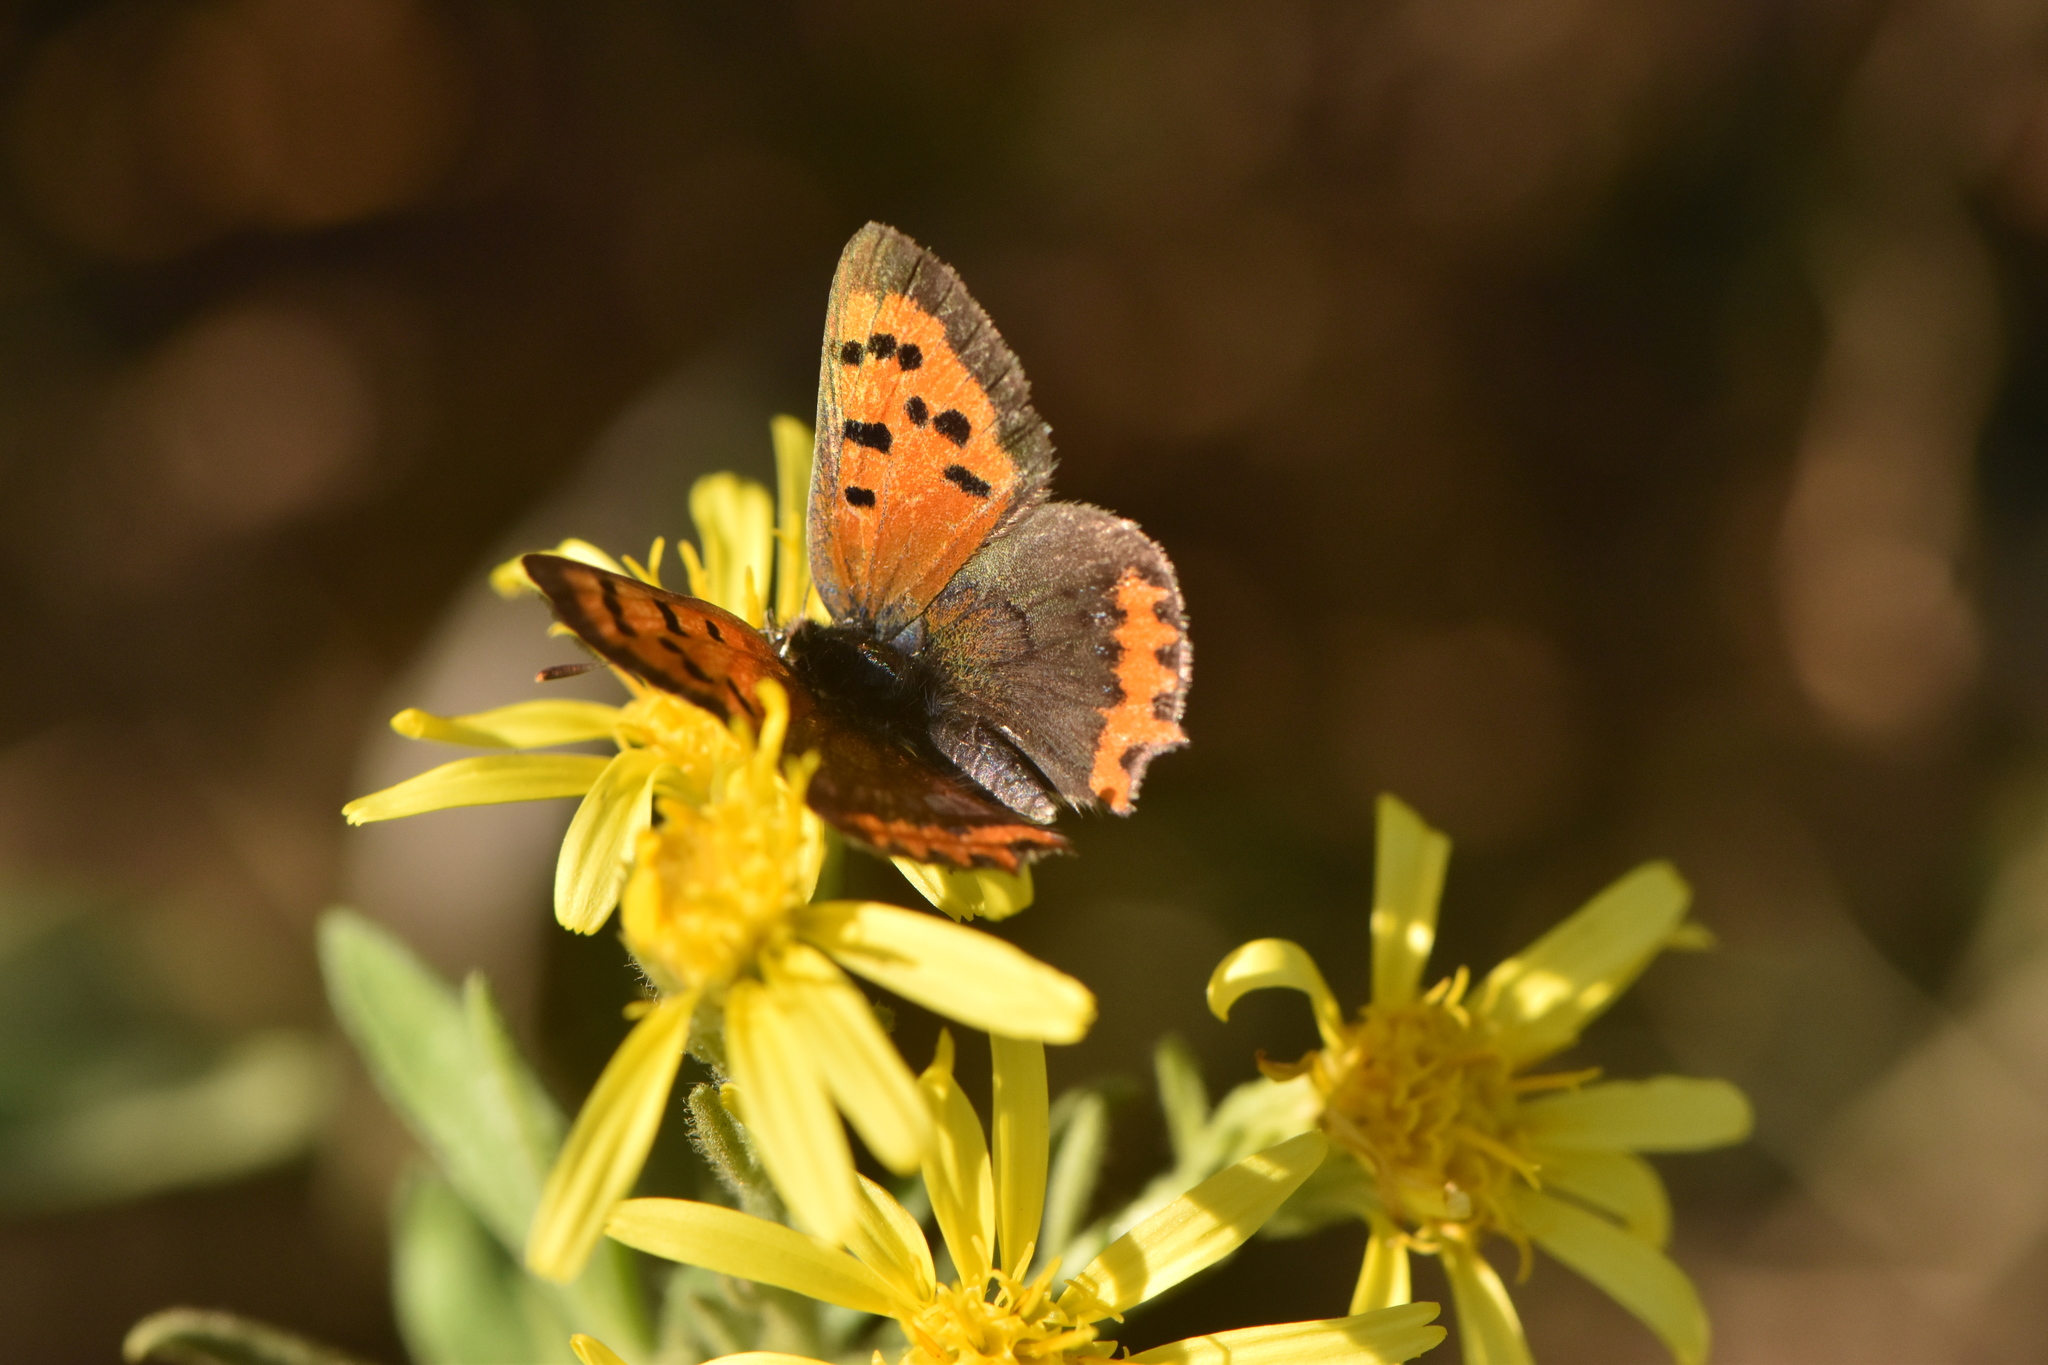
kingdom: Animalia
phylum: Arthropoda
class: Insecta
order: Lepidoptera
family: Lycaenidae
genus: Lycaena
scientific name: Lycaena phlaeas
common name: Small copper
